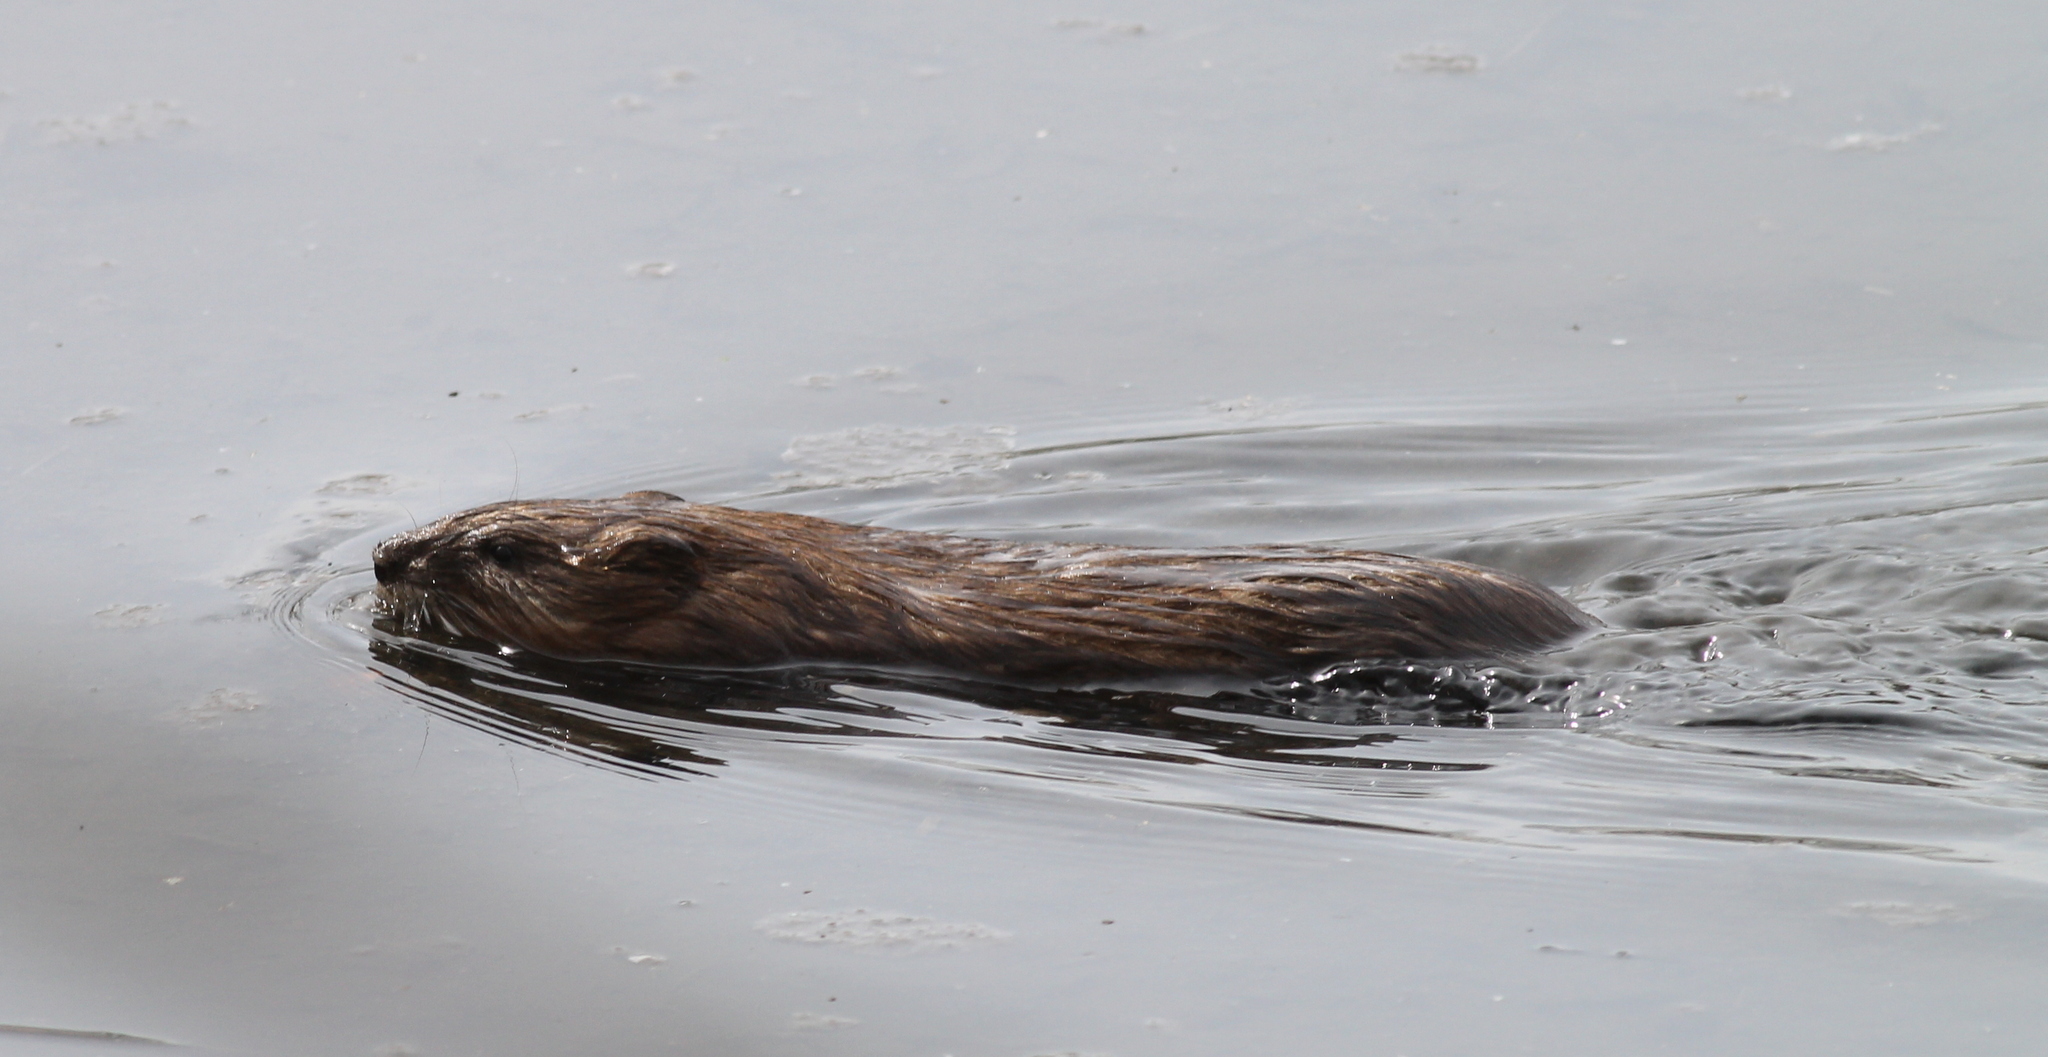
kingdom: Animalia
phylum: Chordata
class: Mammalia
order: Rodentia
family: Cricetidae
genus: Ondatra
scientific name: Ondatra zibethicus
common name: Muskrat
